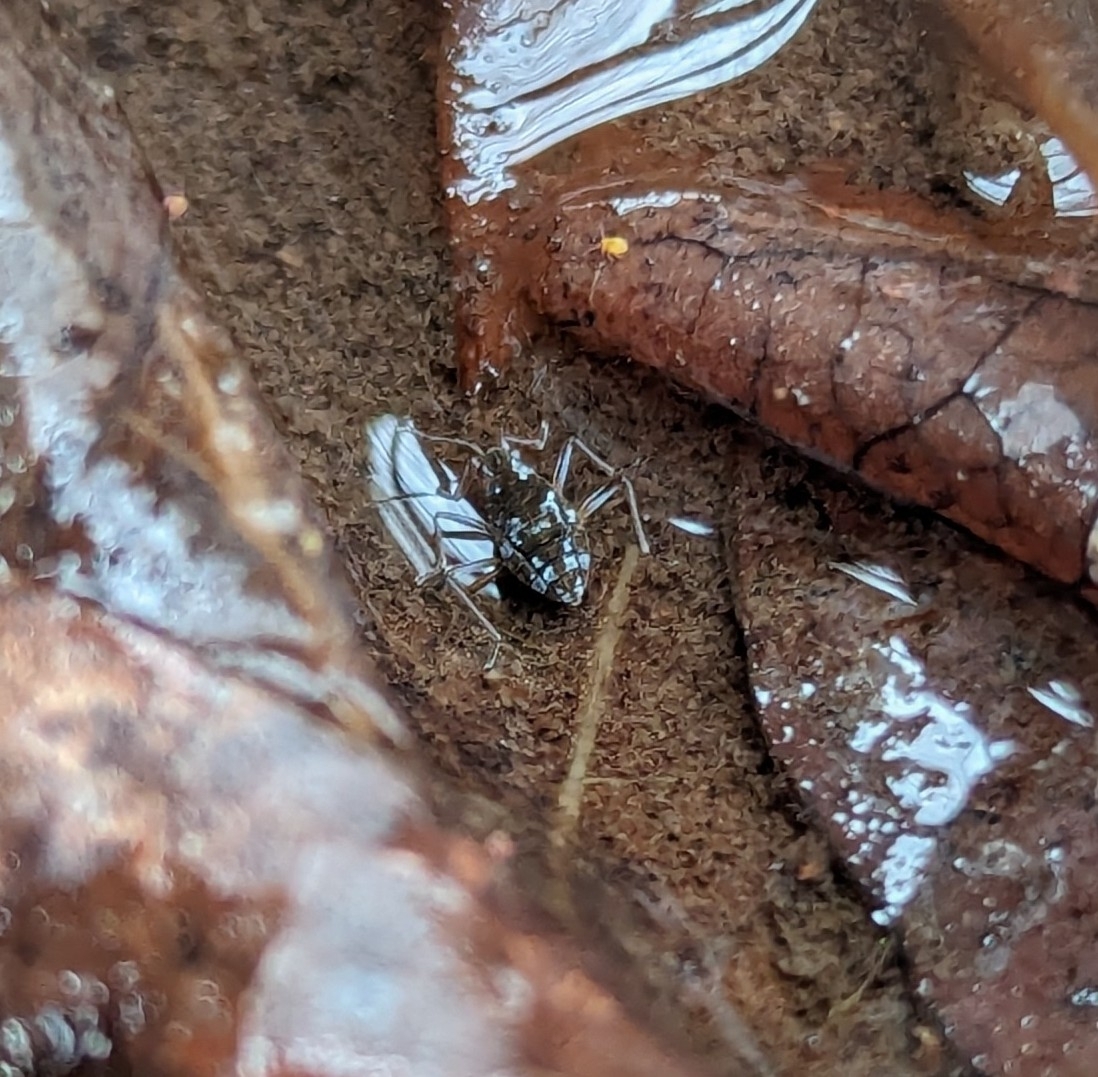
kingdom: Animalia
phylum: Arthropoda
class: Insecta
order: Hemiptera
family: Veliidae
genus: Microvelia
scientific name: Microvelia americana
